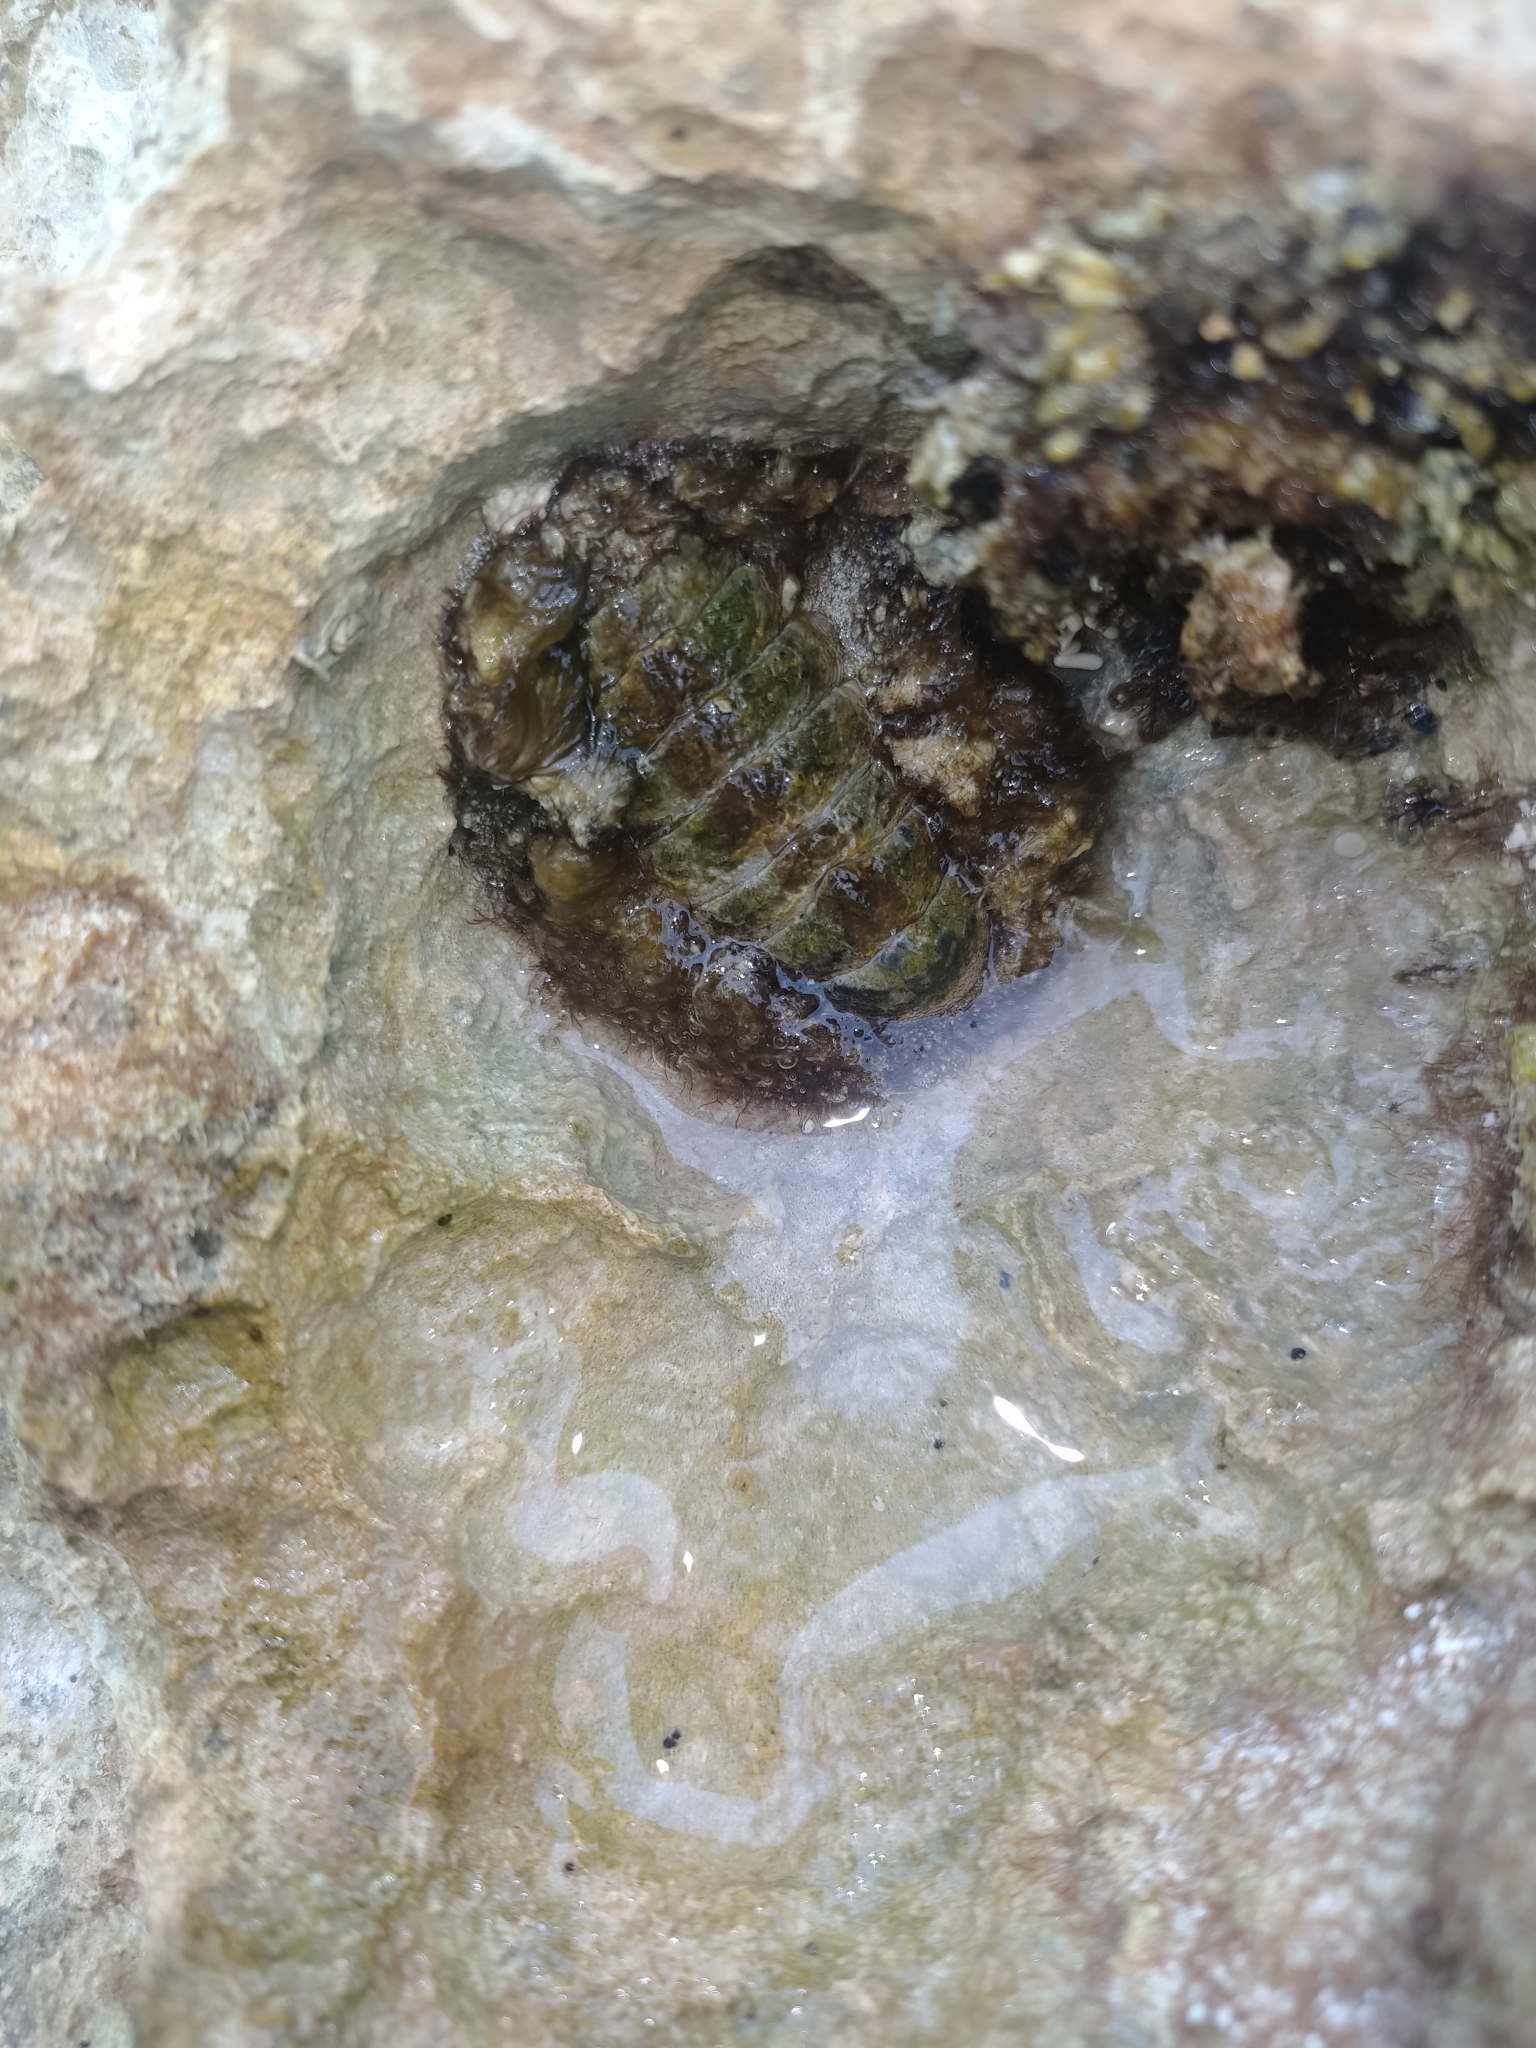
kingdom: Animalia
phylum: Mollusca
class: Polyplacophora
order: Chitonida
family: Chitonidae
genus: Acanthopleura
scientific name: Acanthopleura granulata
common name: West indian fuzzy chiton
